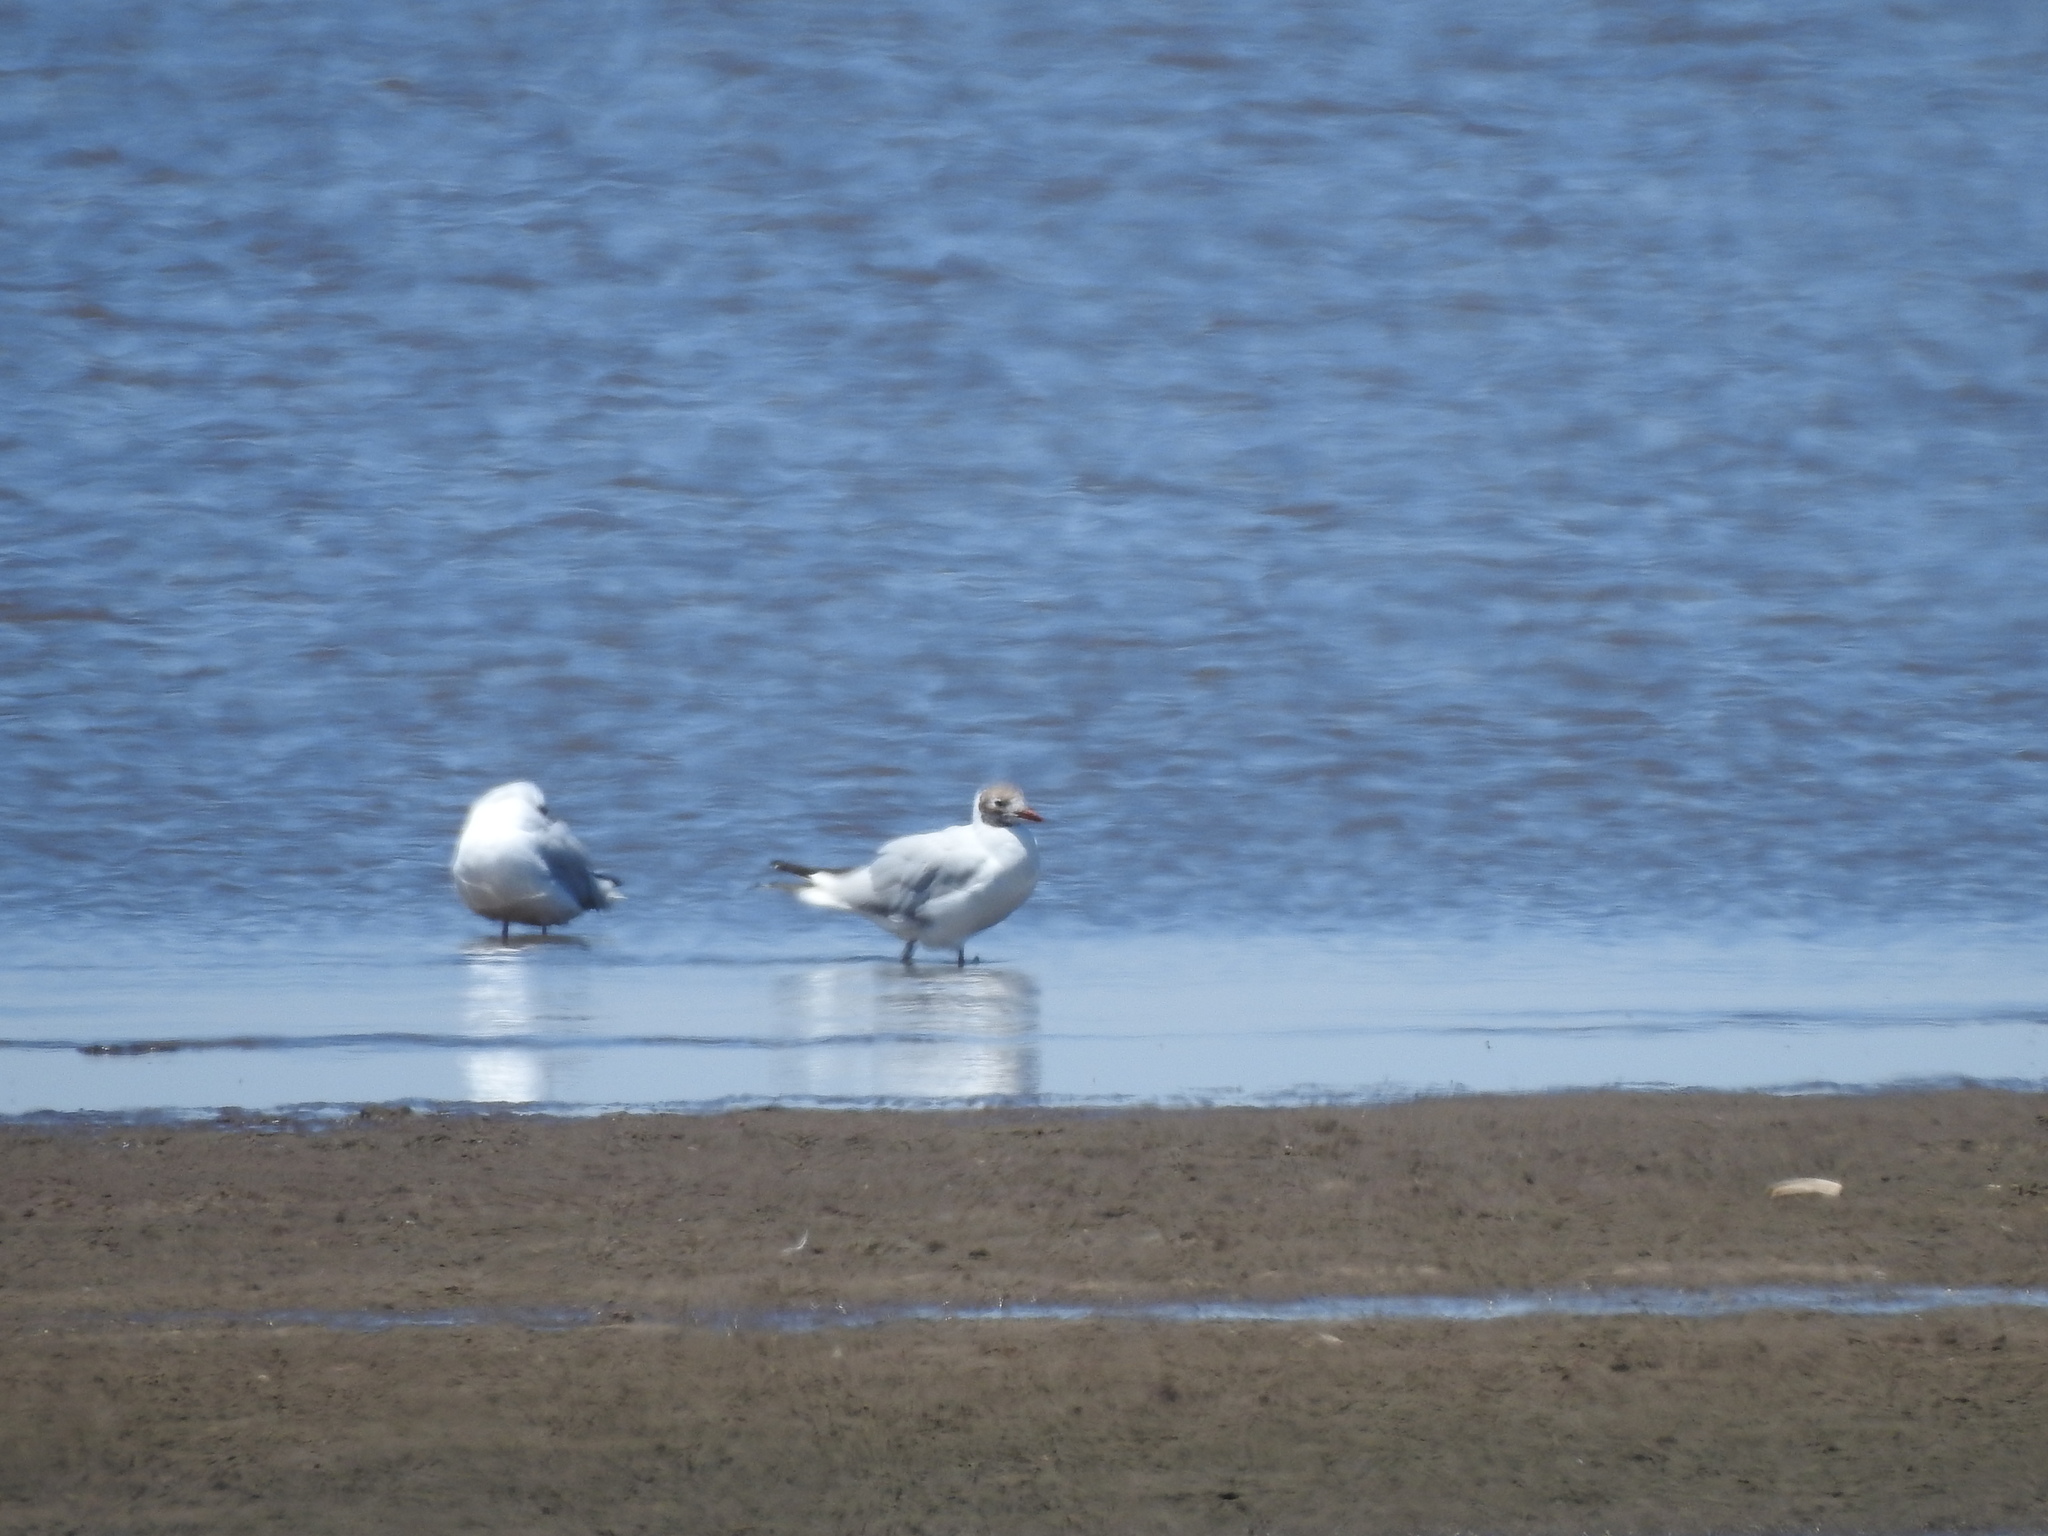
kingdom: Animalia
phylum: Chordata
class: Aves
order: Charadriiformes
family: Laridae
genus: Chroicocephalus
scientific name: Chroicocephalus maculipennis
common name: Brown-hooded gull
